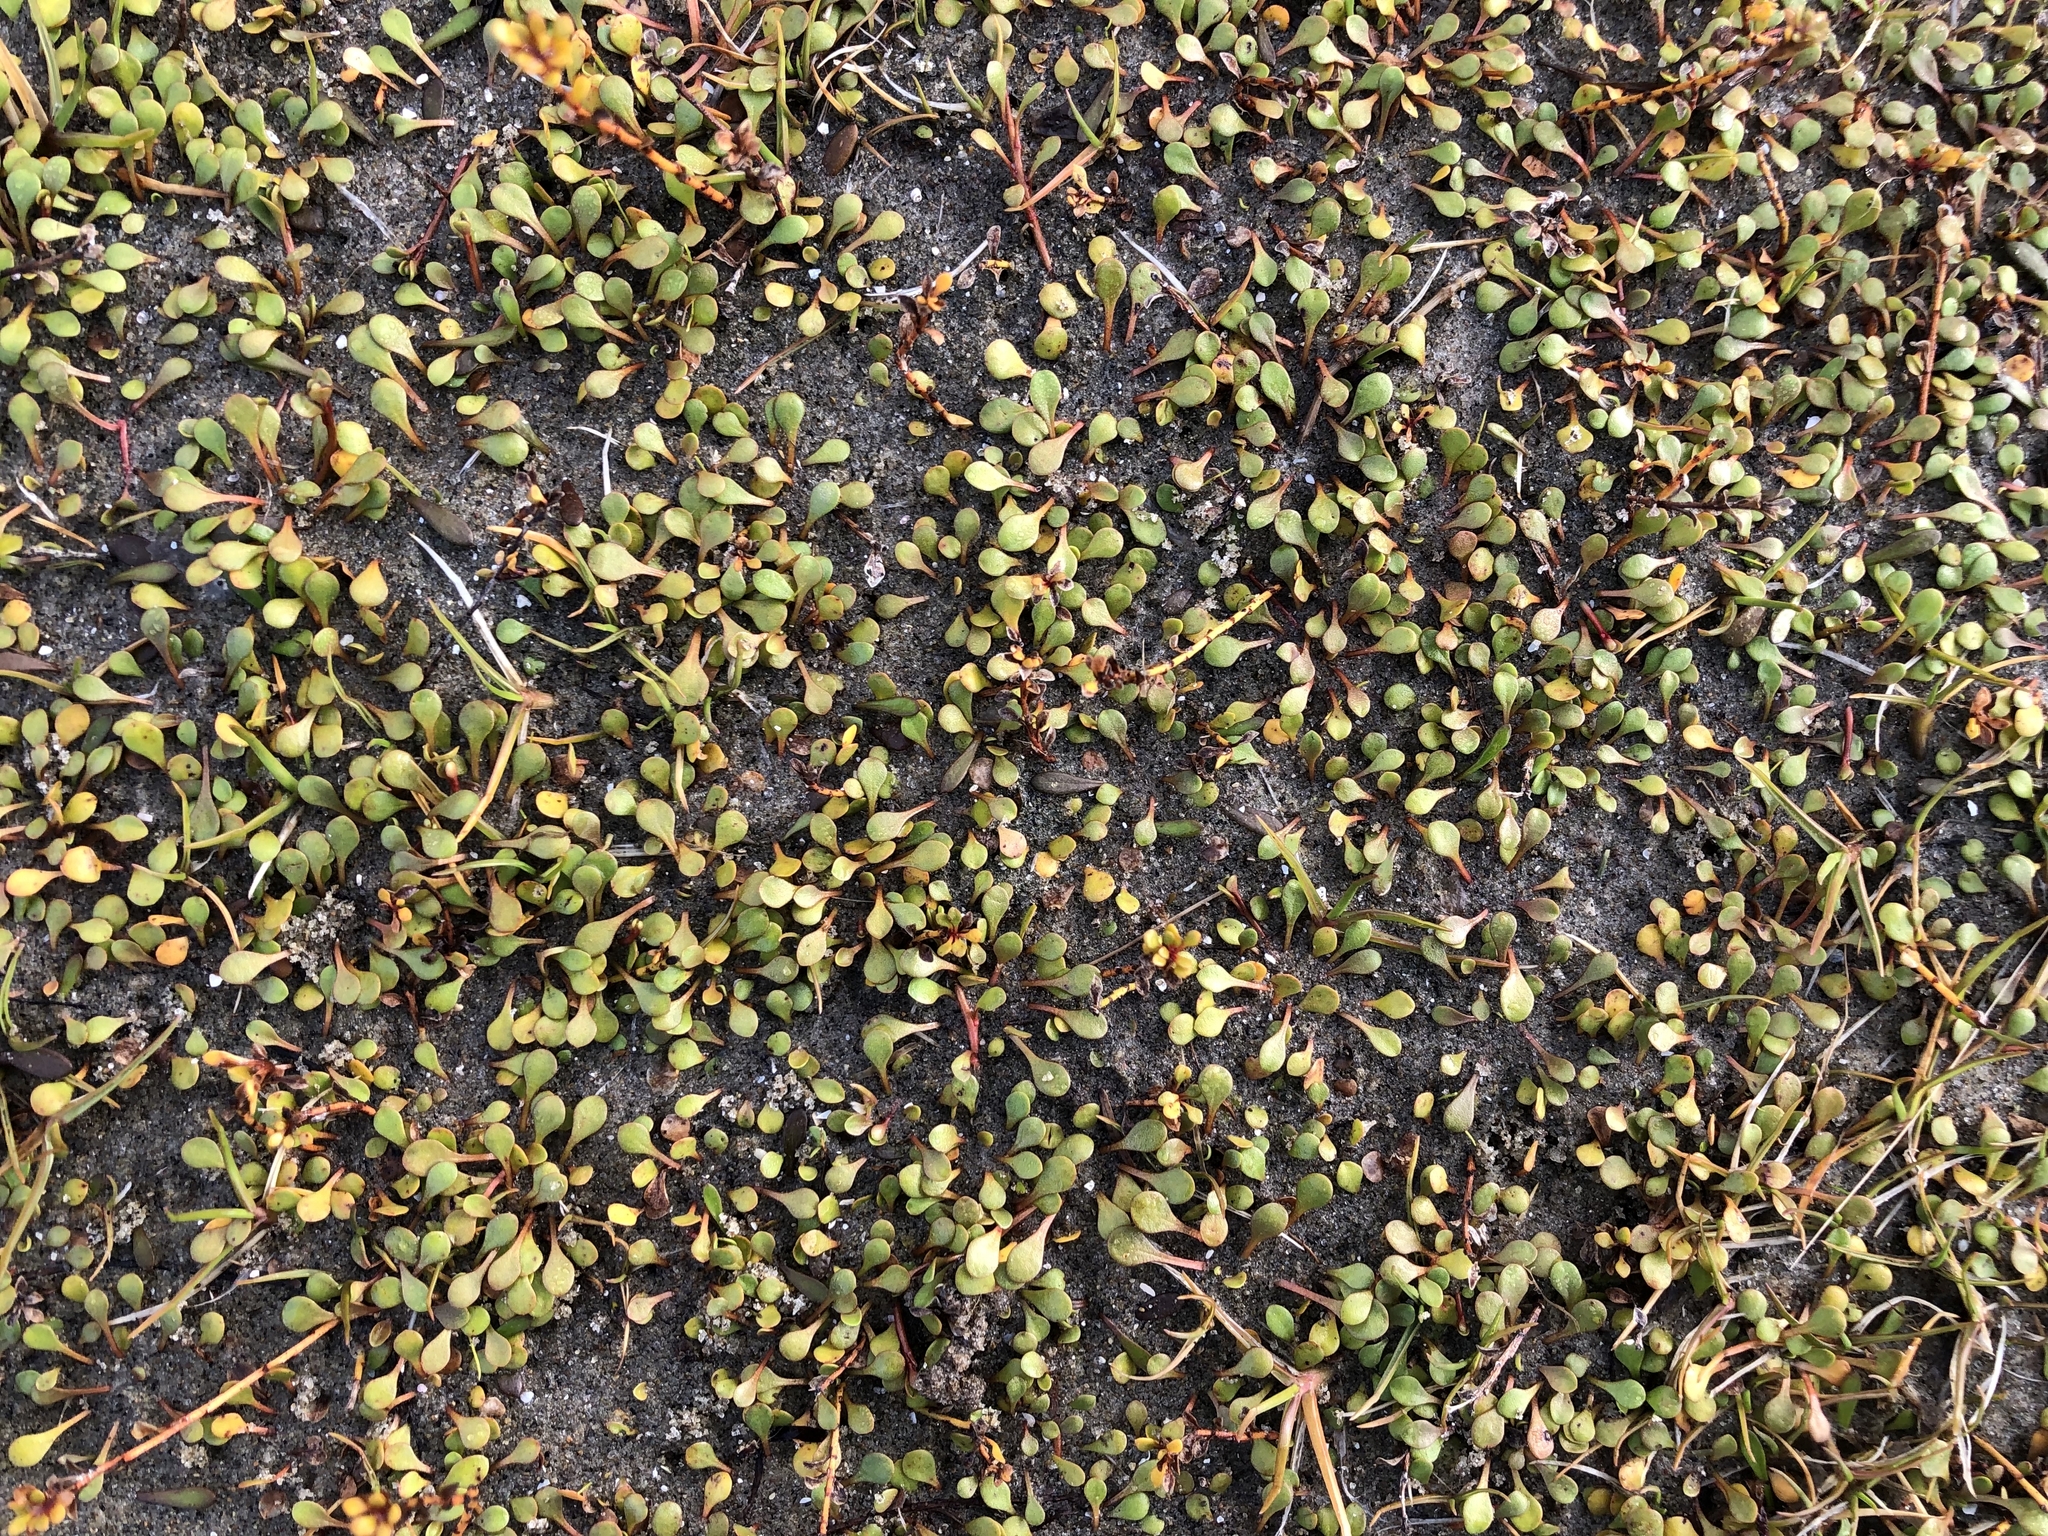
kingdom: Plantae
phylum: Tracheophyta
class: Magnoliopsida
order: Ericales
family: Primulaceae
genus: Samolus
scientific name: Samolus repens
